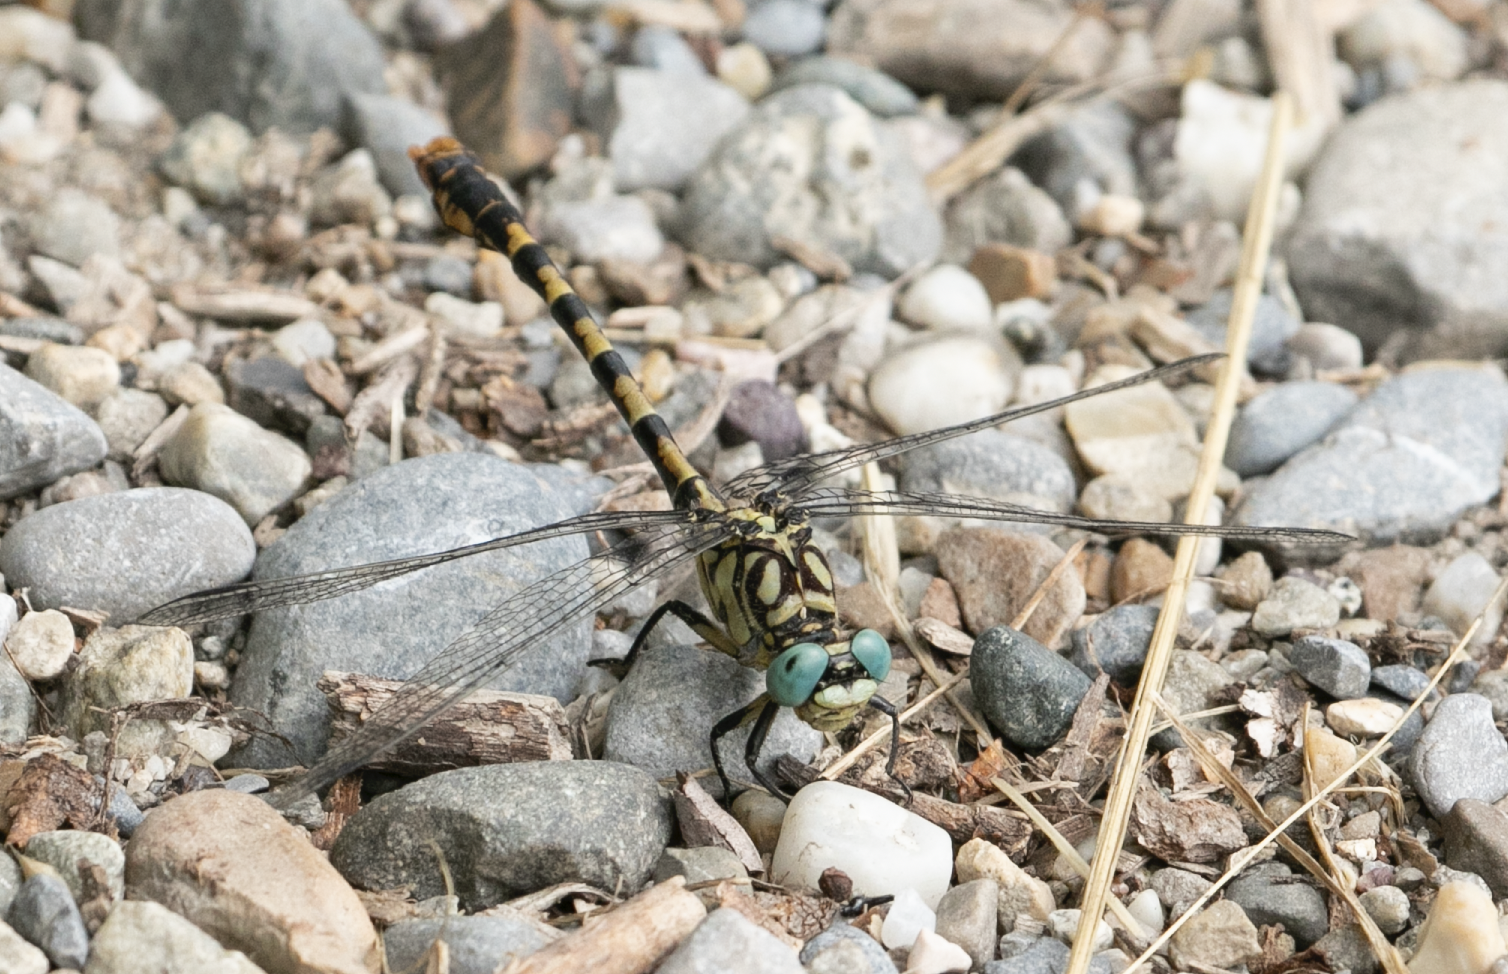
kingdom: Animalia
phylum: Arthropoda
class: Insecta
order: Odonata
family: Gomphidae
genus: Onychogomphus
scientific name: Onychogomphus forcipatus
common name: Small pincertail
